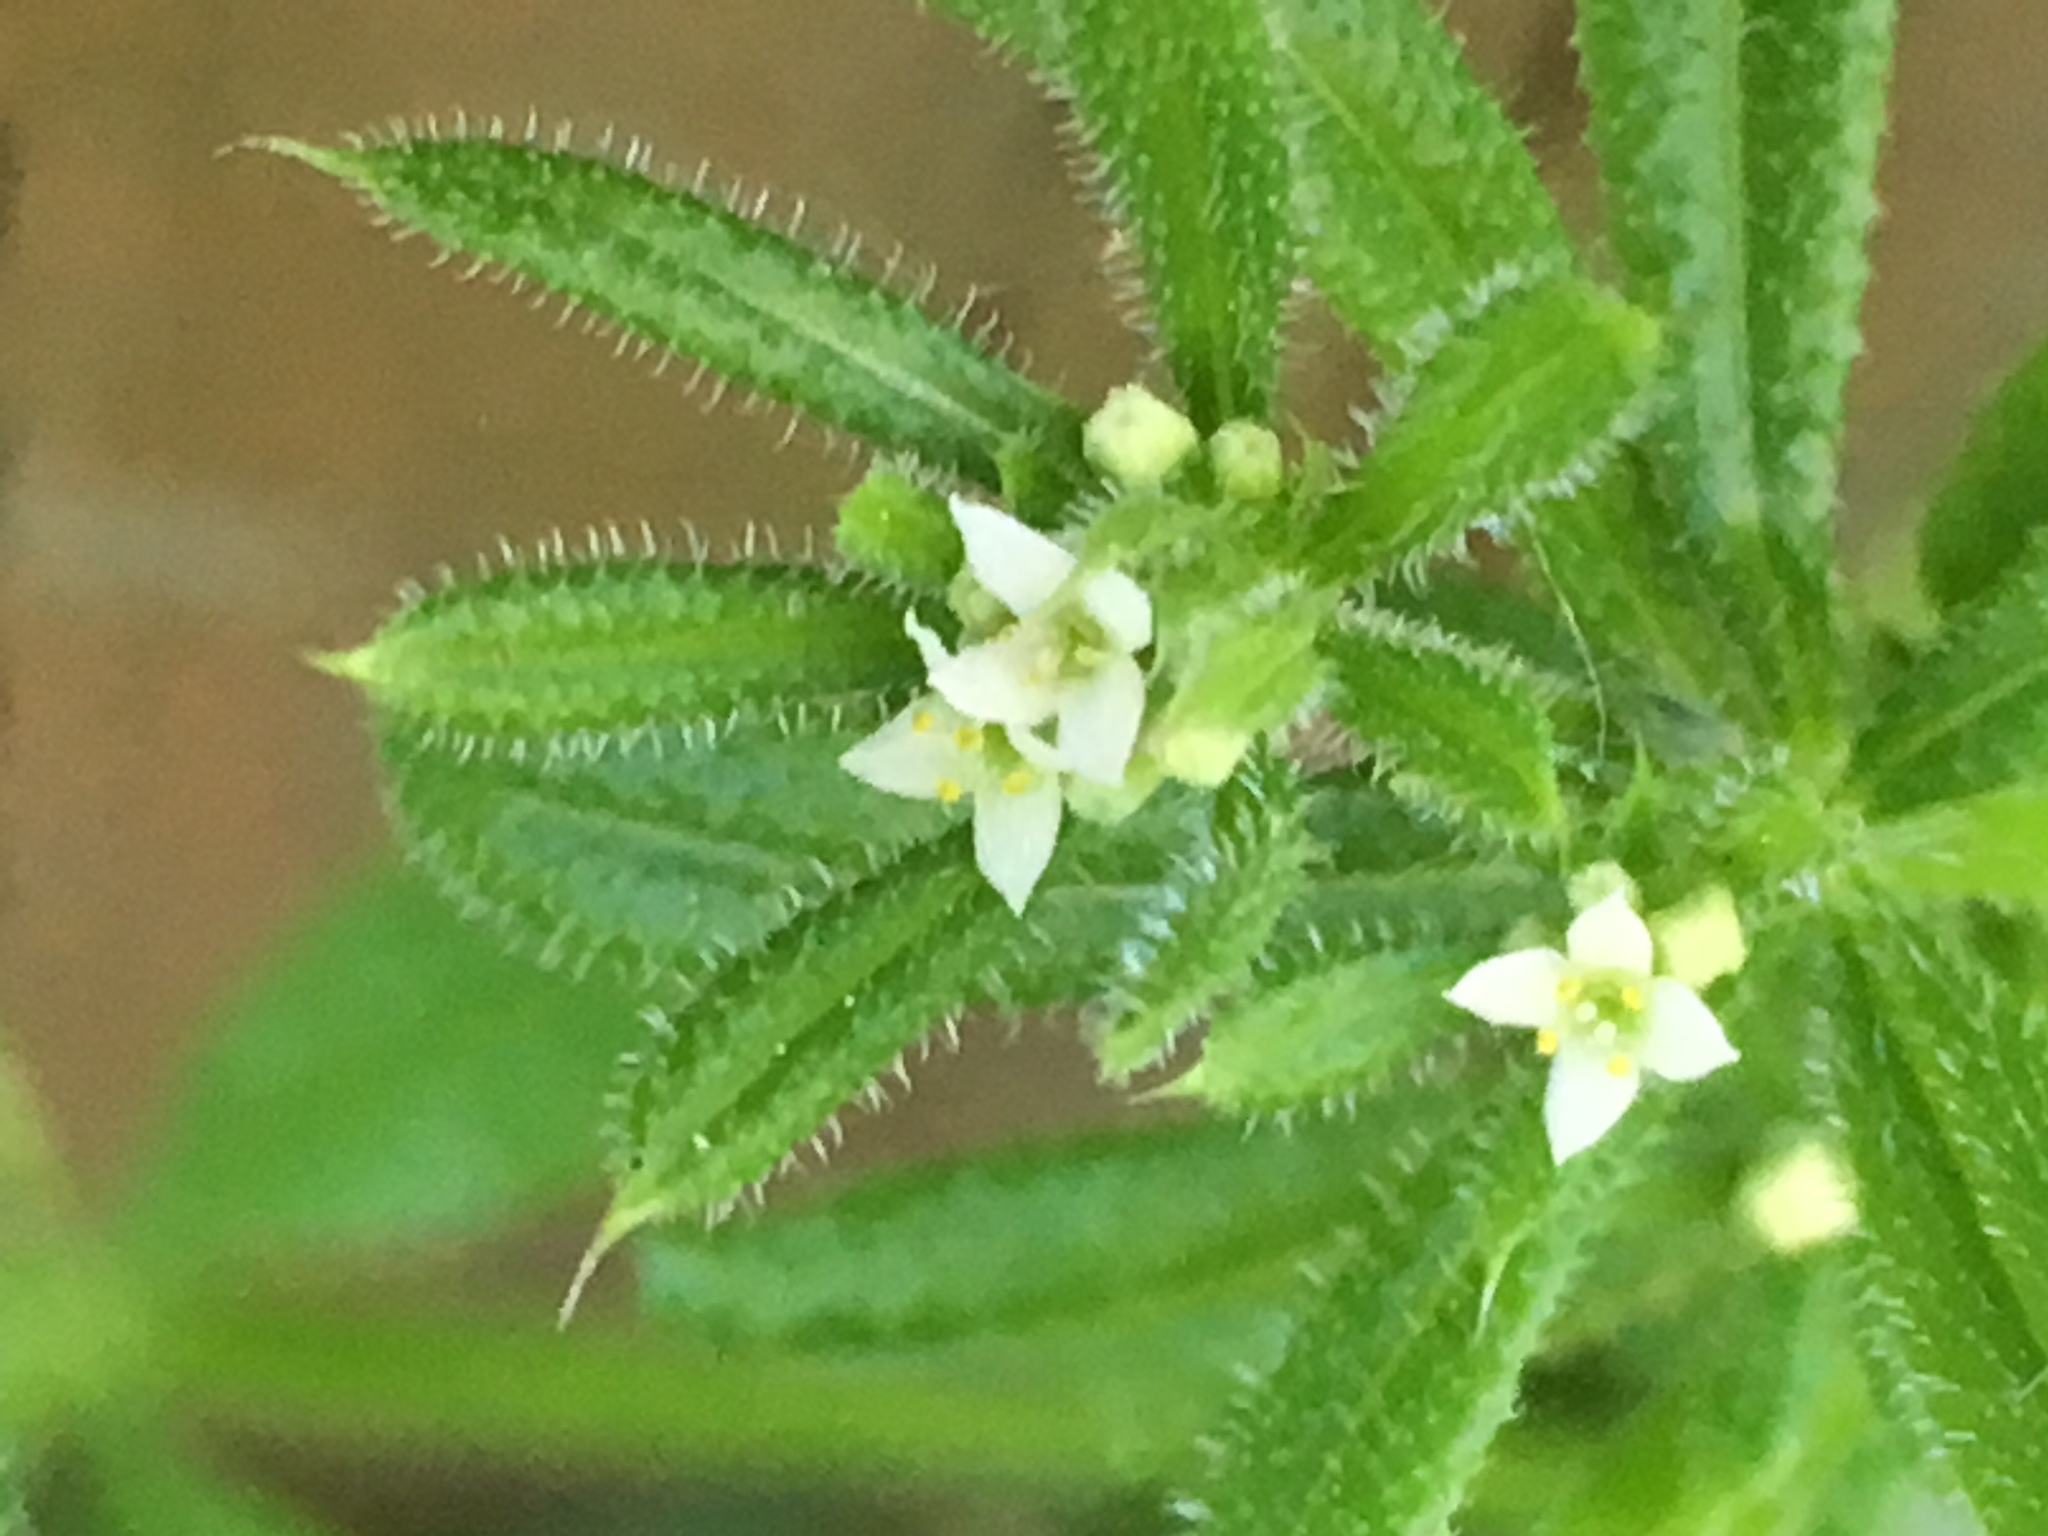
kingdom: Plantae
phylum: Tracheophyta
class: Magnoliopsida
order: Gentianales
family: Rubiaceae
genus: Galium
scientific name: Galium aparine
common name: Cleavers
